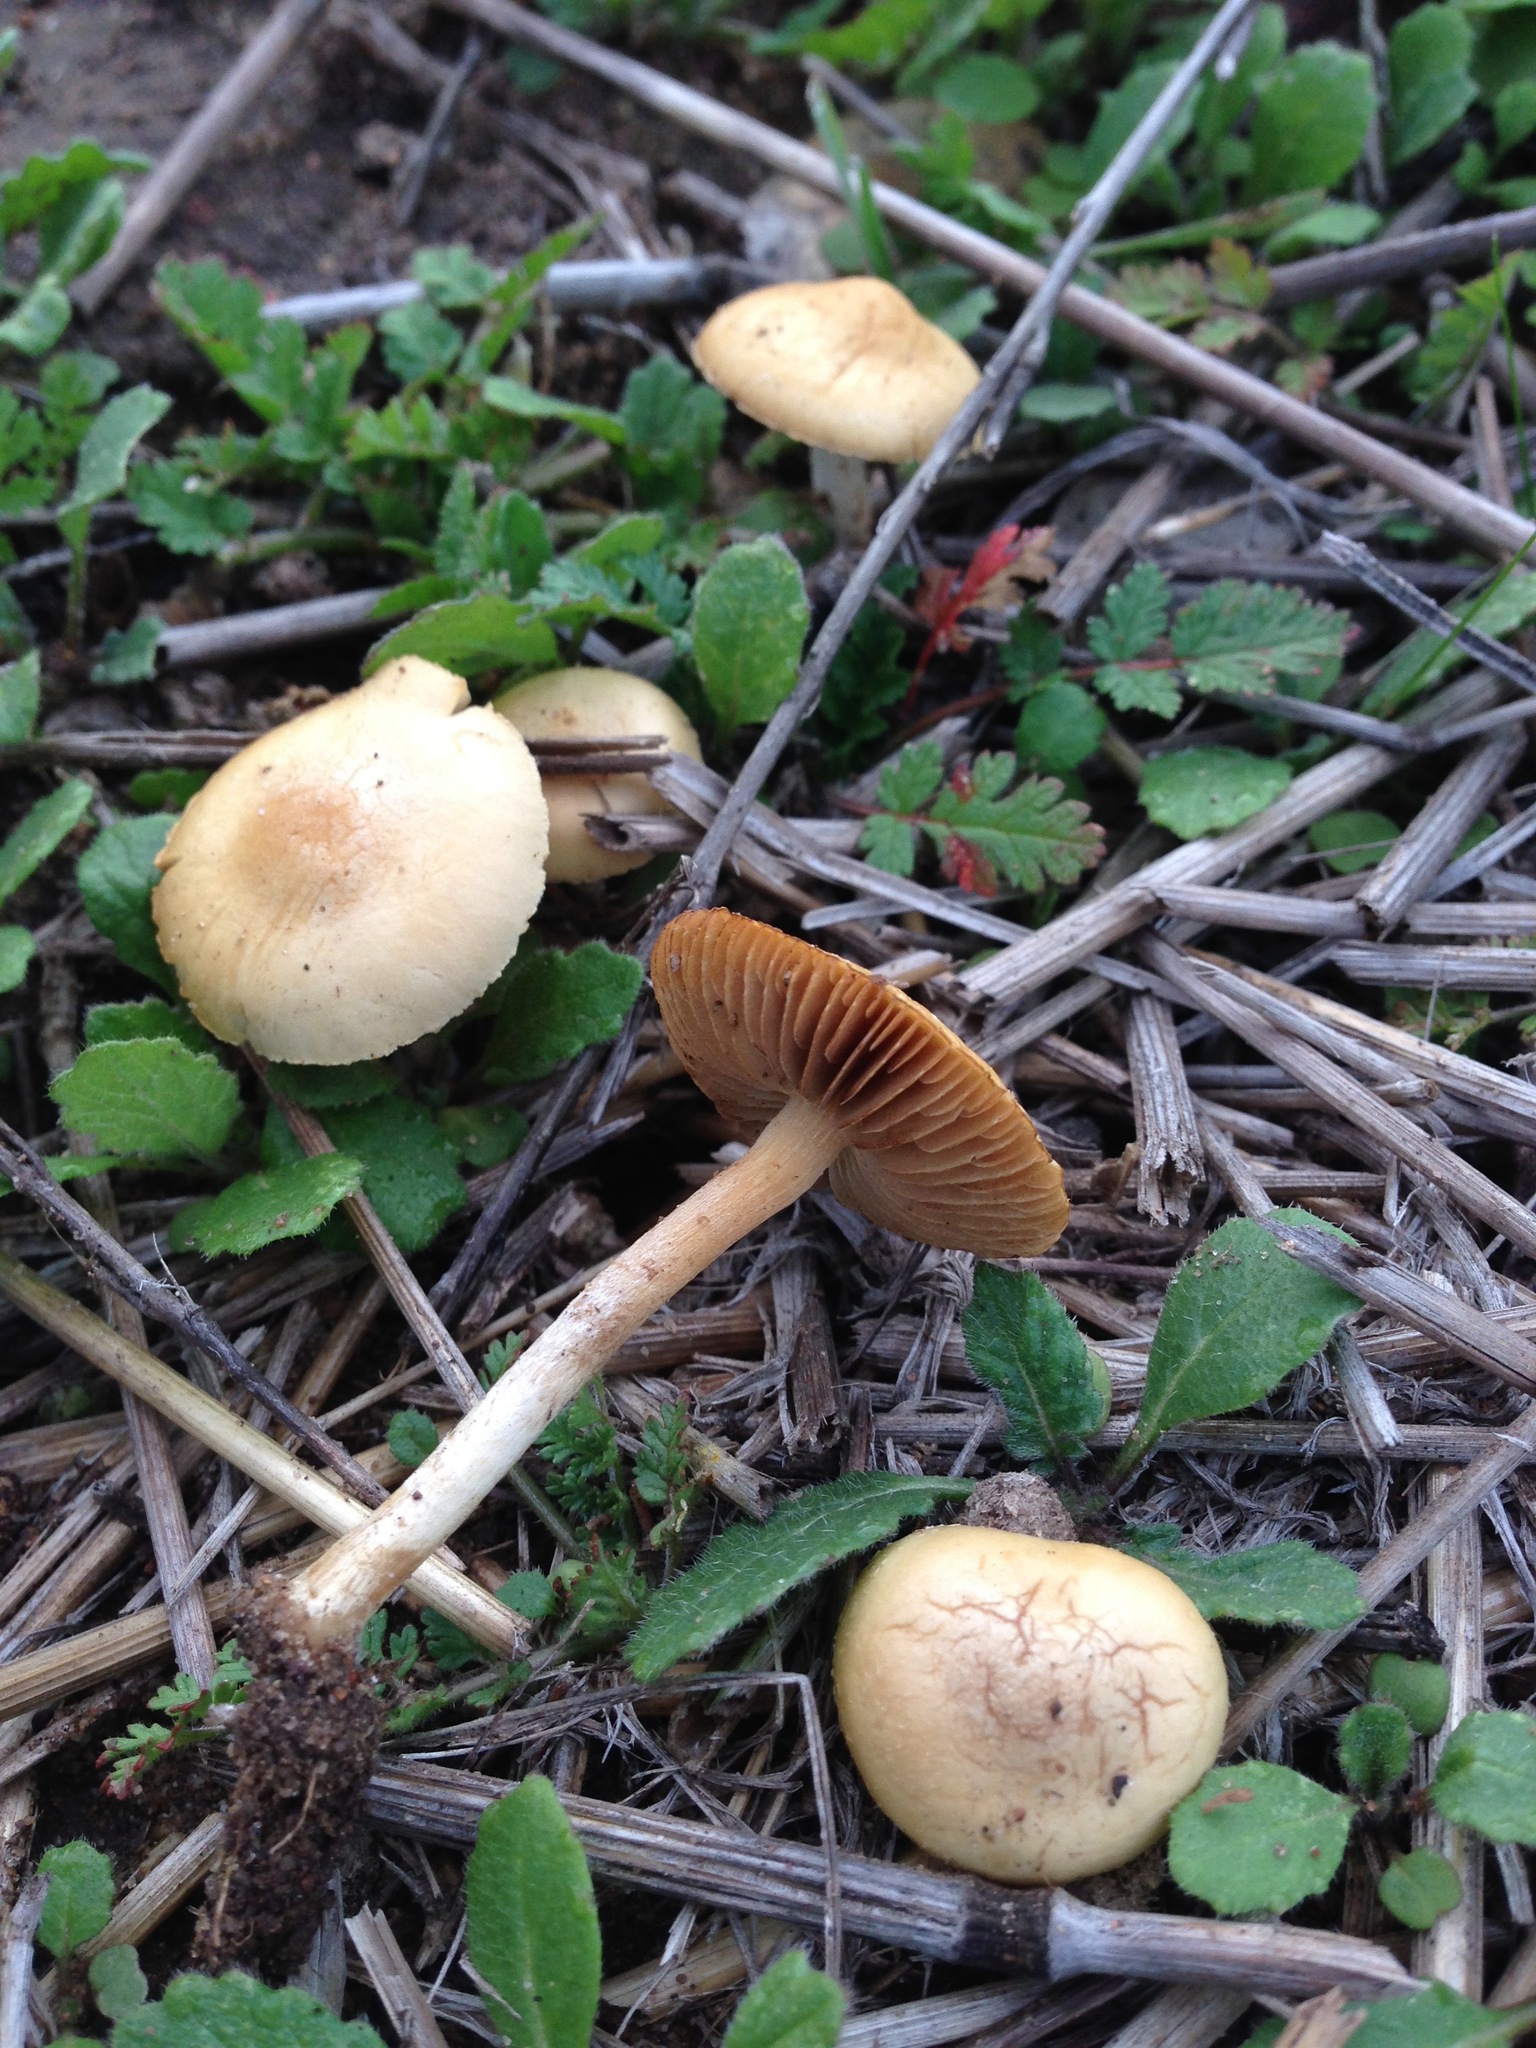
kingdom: Fungi
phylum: Basidiomycota
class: Agaricomycetes
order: Agaricales
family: Strophariaceae
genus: Agrocybe
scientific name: Agrocybe pediades
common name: Common fieldcap
